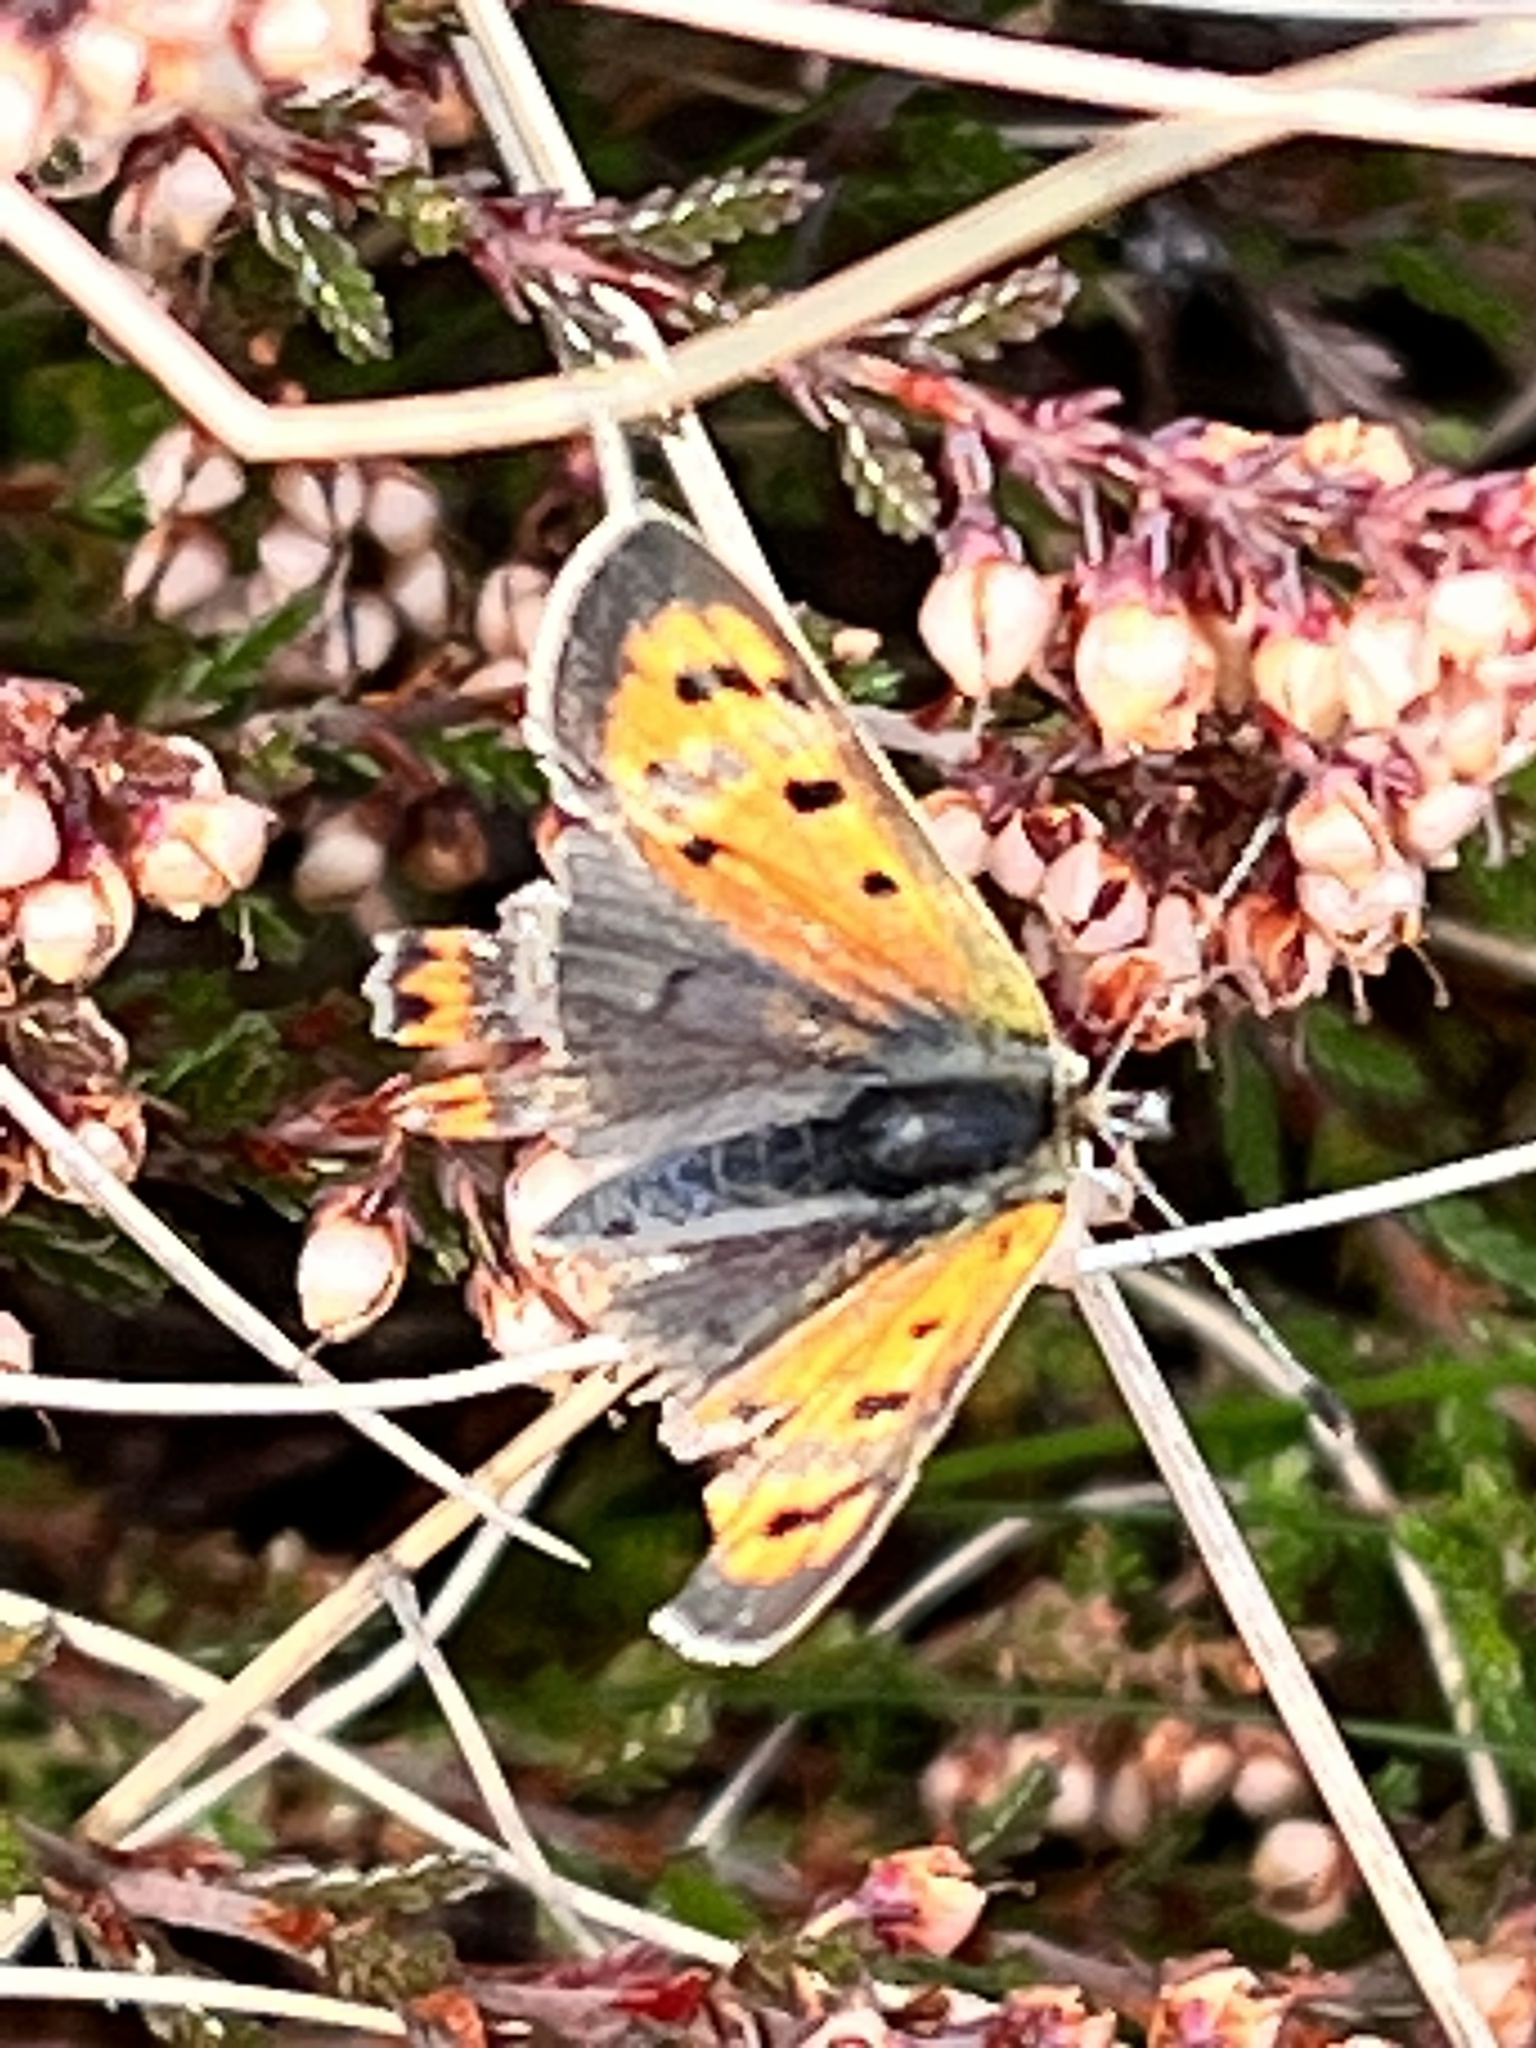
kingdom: Animalia
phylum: Arthropoda
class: Insecta
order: Lepidoptera
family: Lycaenidae
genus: Lycaena
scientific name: Lycaena phlaeas
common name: Small copper
